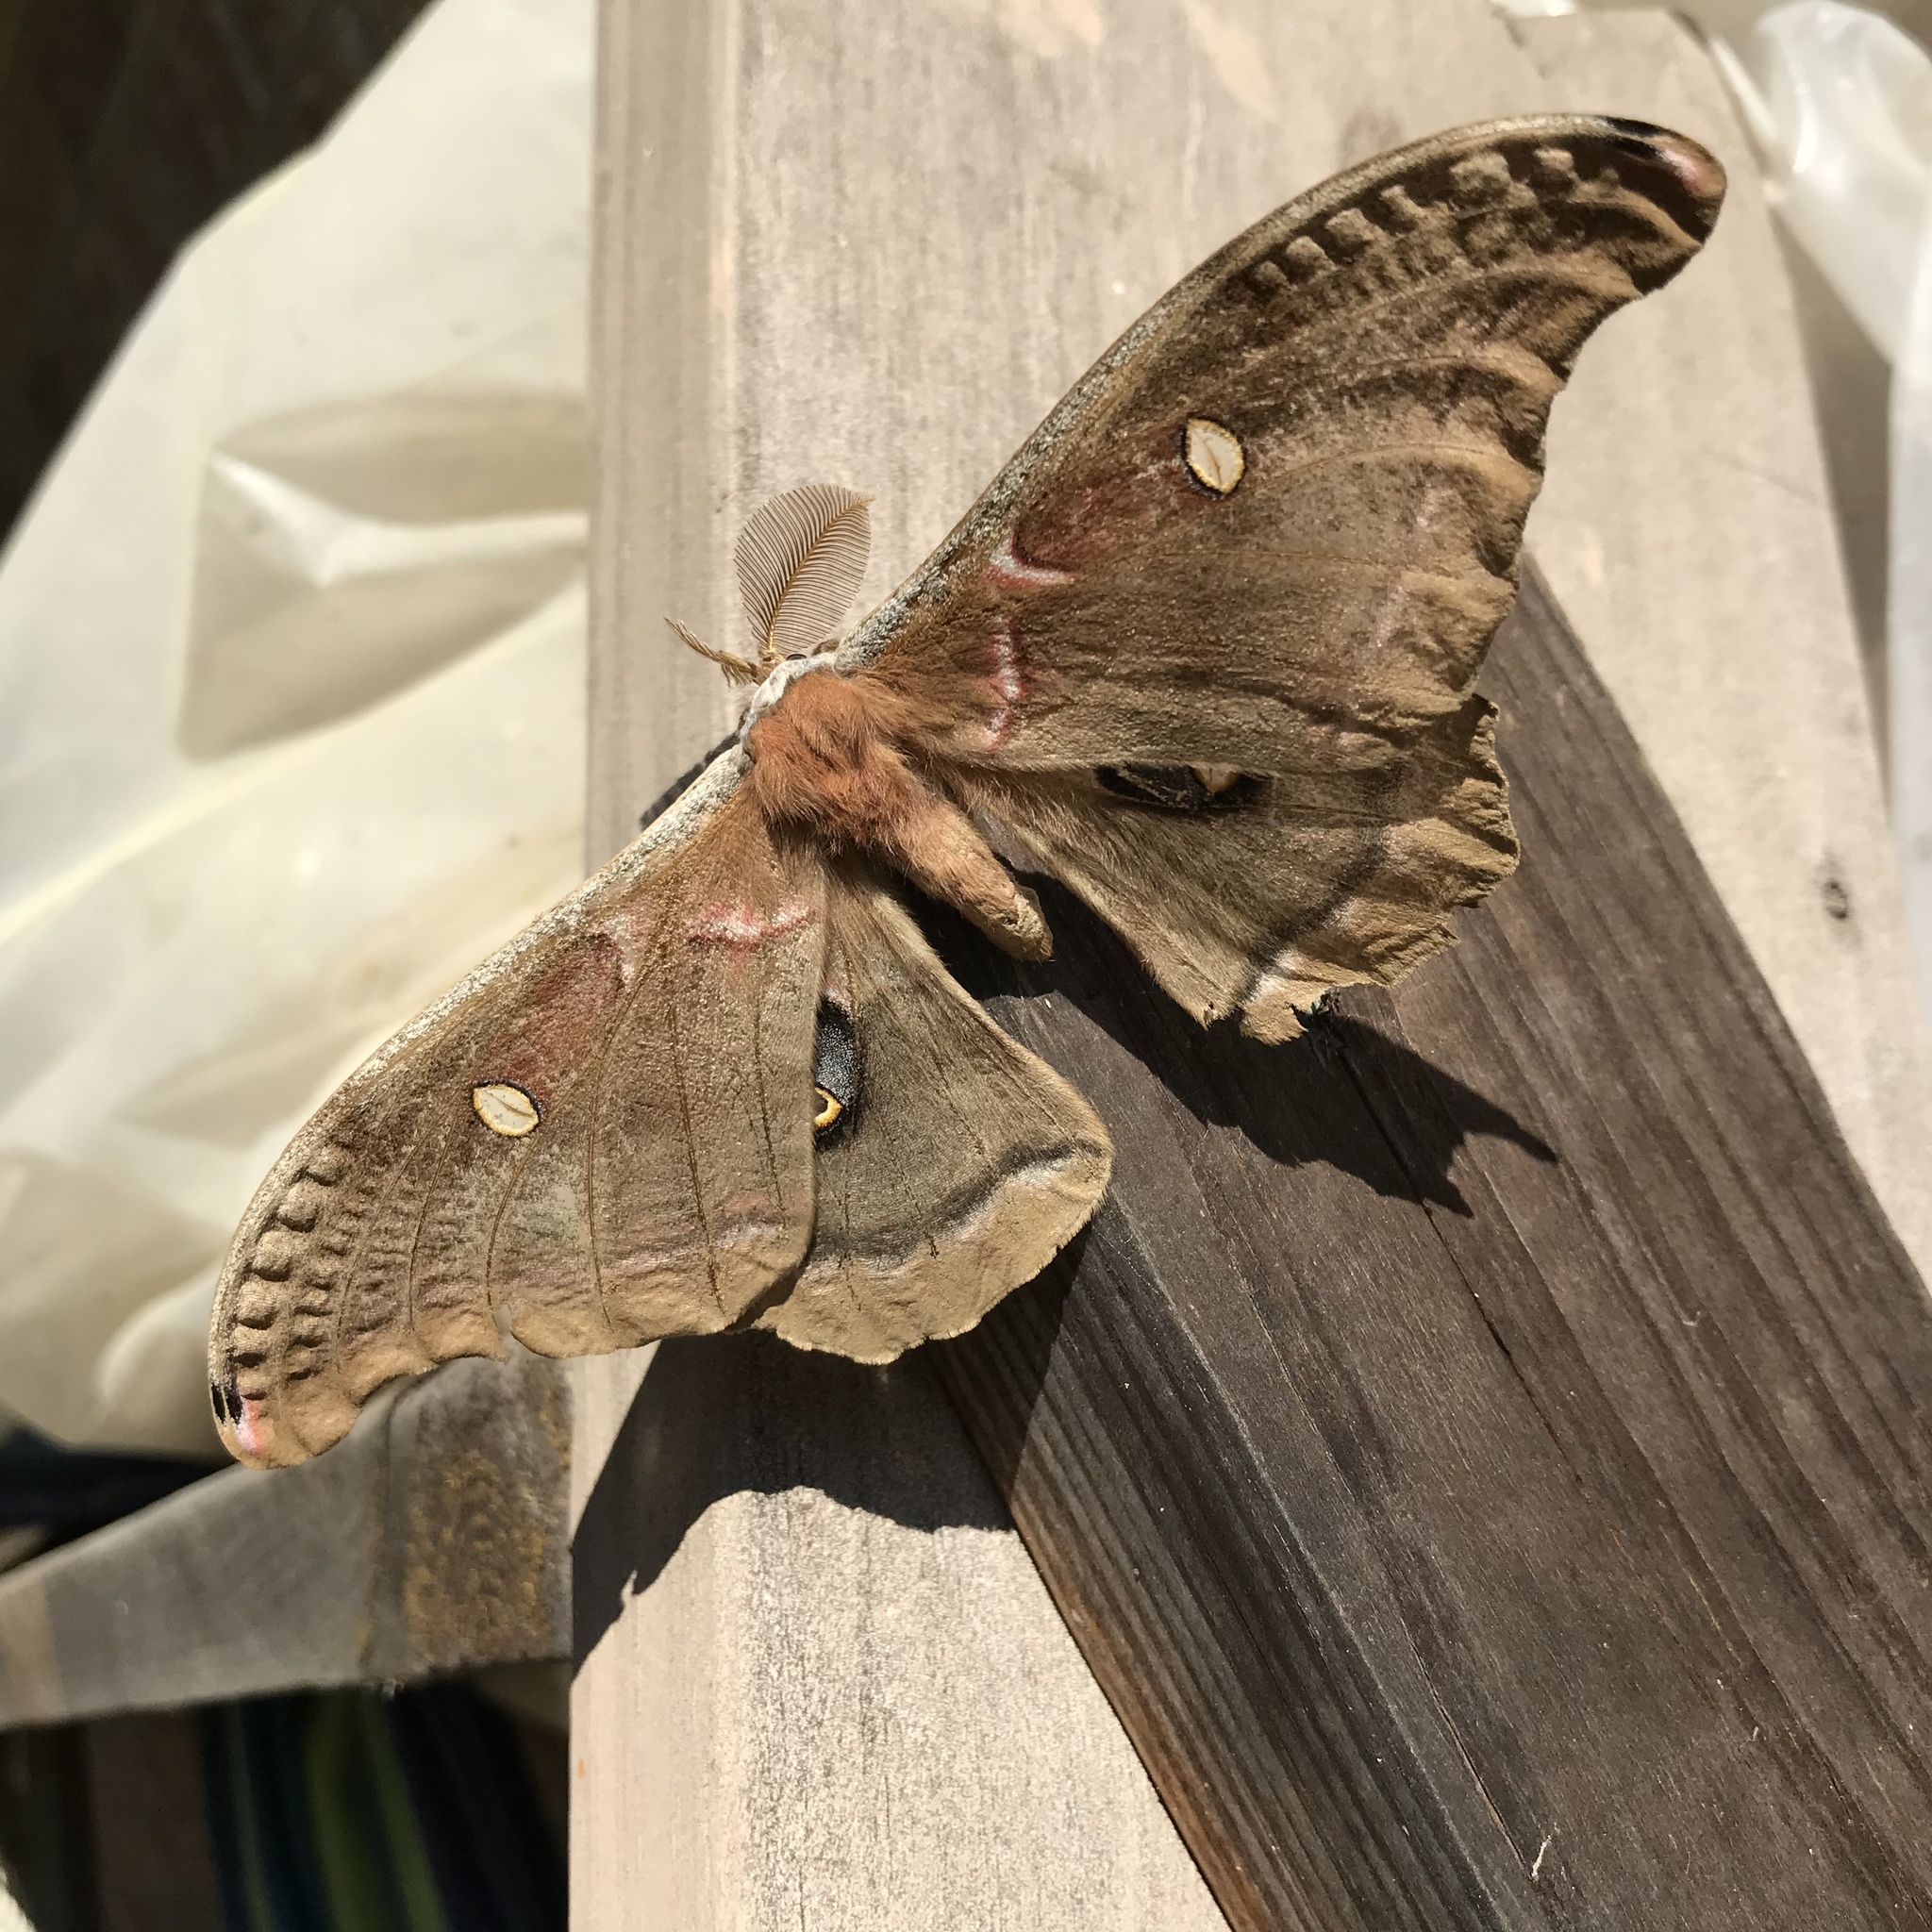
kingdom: Animalia
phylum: Arthropoda
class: Insecta
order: Lepidoptera
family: Saturniidae
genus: Antheraea
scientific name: Antheraea polyphemus
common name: Polyphemus moth
